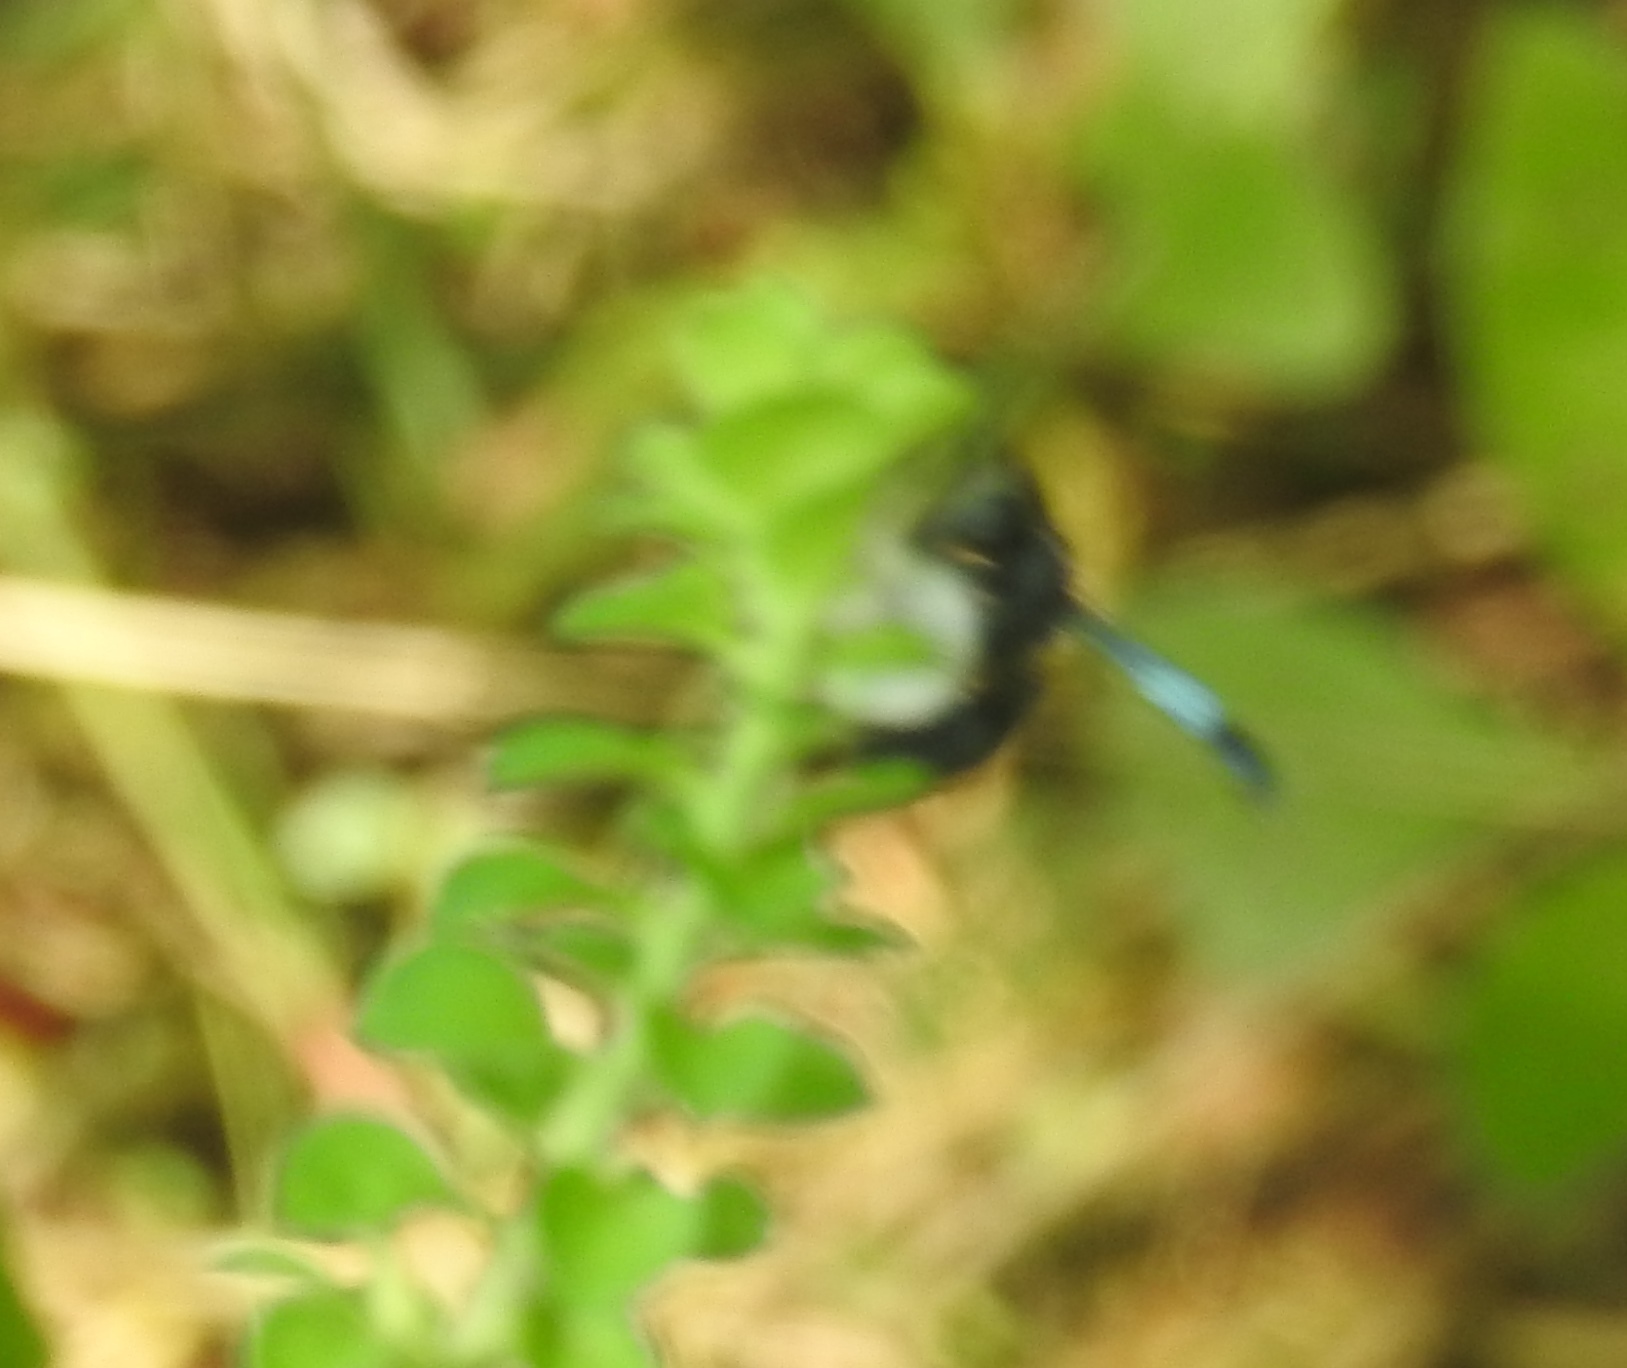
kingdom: Animalia
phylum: Arthropoda
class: Insecta
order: Hymenoptera
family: Eumenidae
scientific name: Eumenidae
